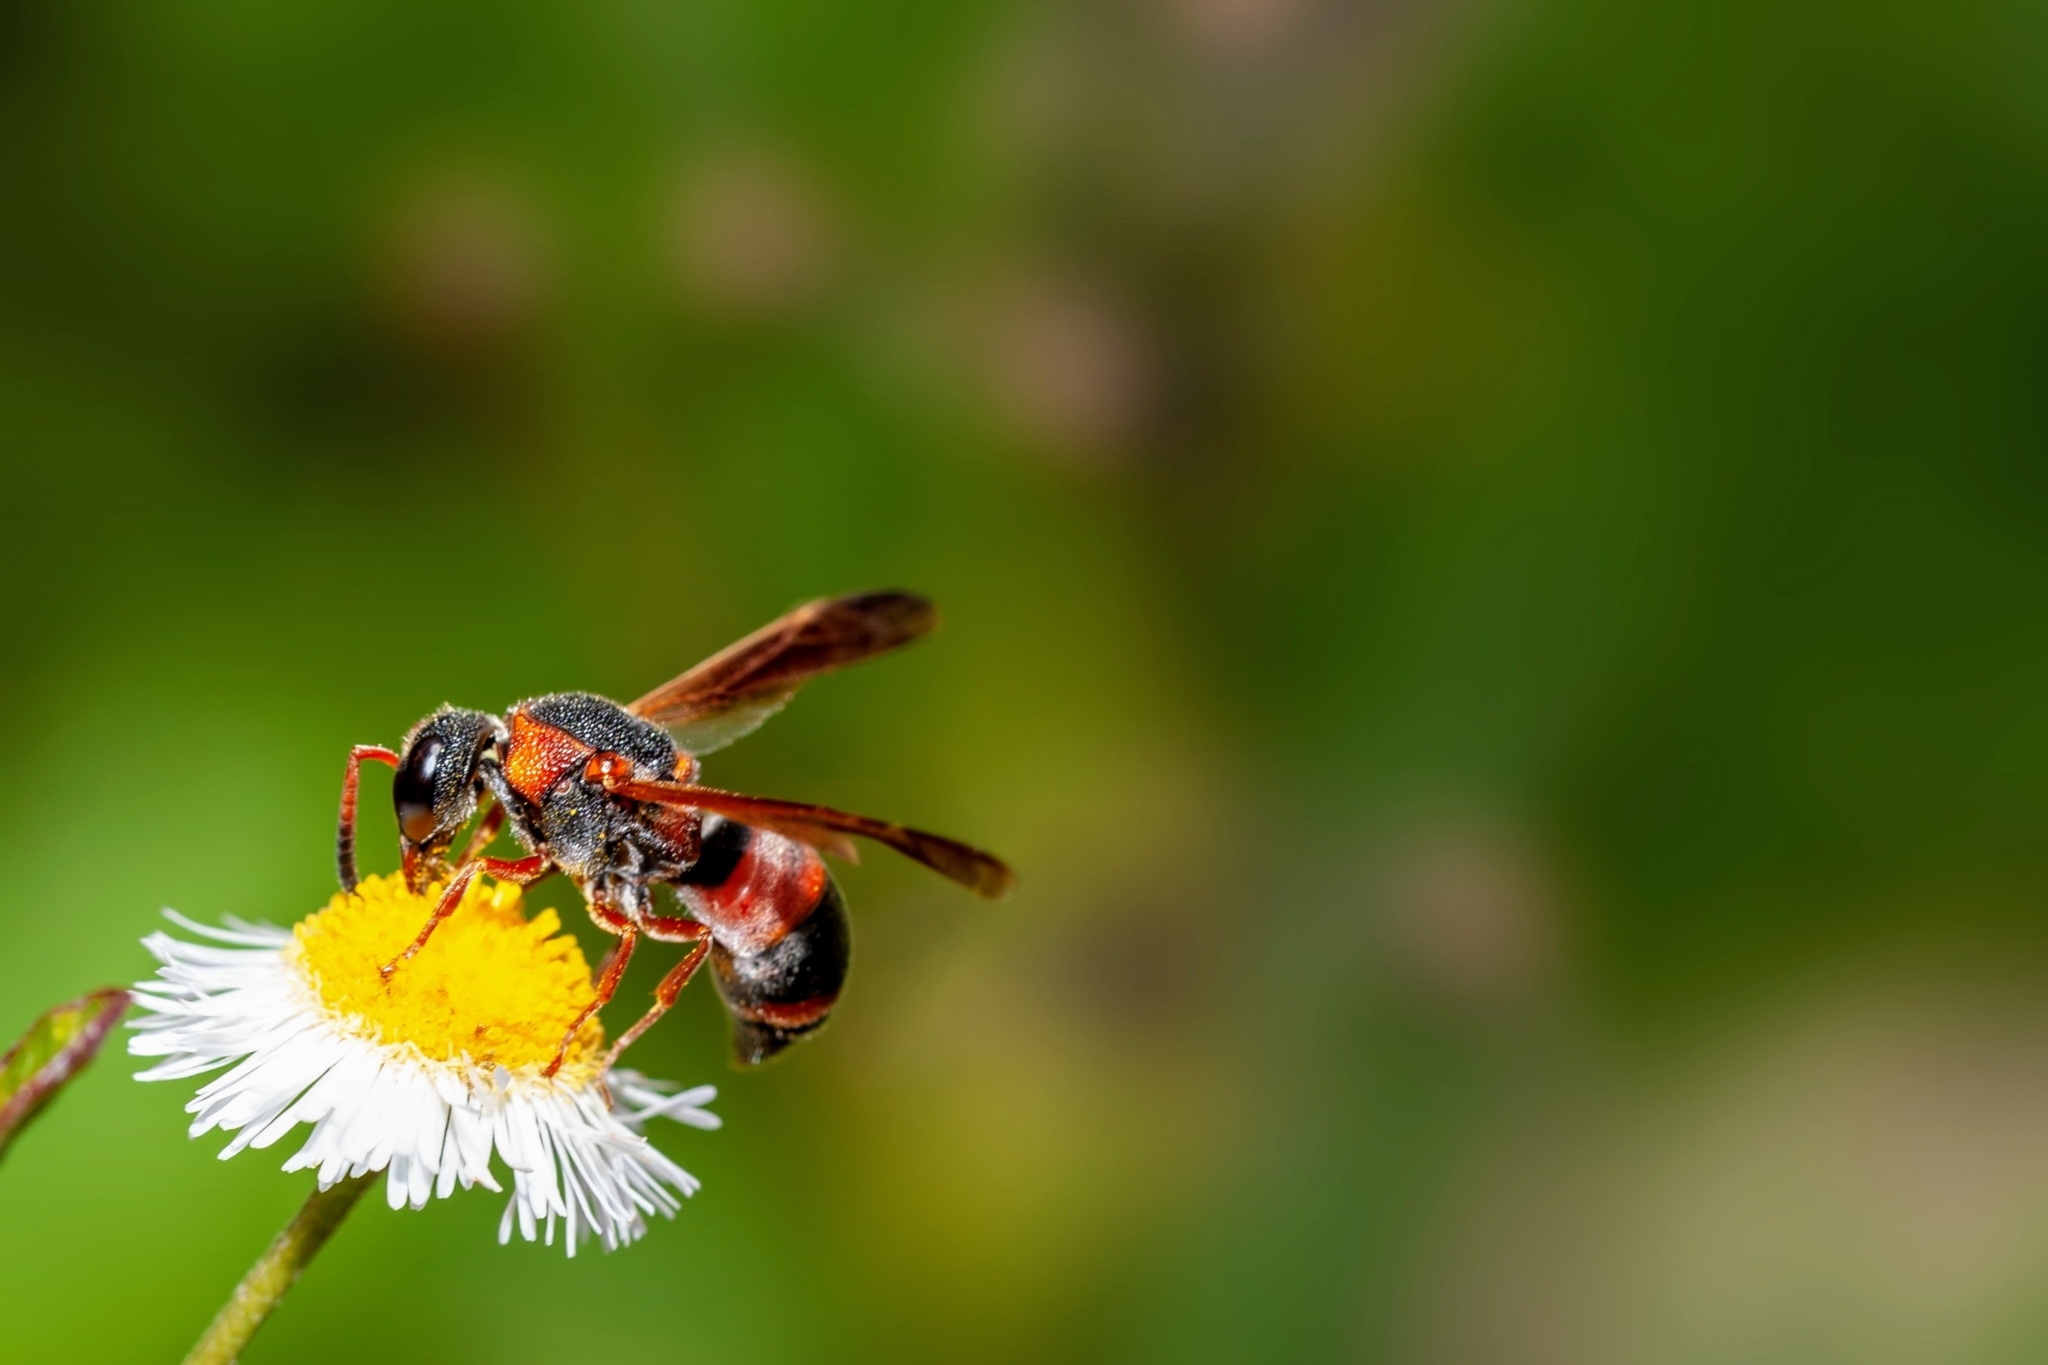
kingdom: Animalia
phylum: Arthropoda
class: Insecta
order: Hymenoptera
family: Eumenidae
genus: Pachodynerus
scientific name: Pachodynerus erynnis
